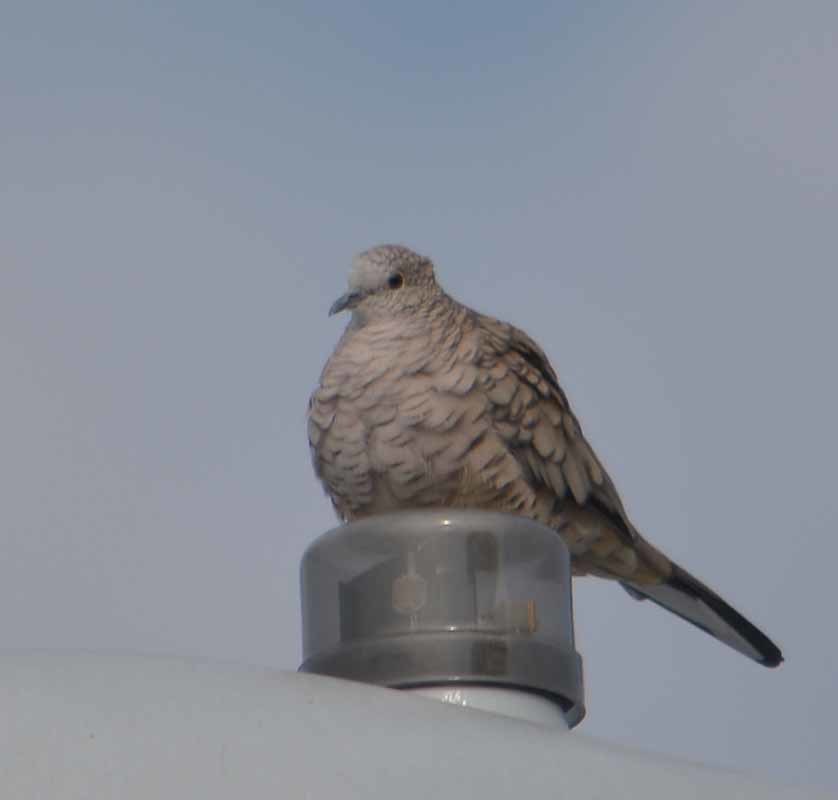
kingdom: Animalia
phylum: Chordata
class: Aves
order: Columbiformes
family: Columbidae
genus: Columbina
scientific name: Columbina inca
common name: Inca dove
